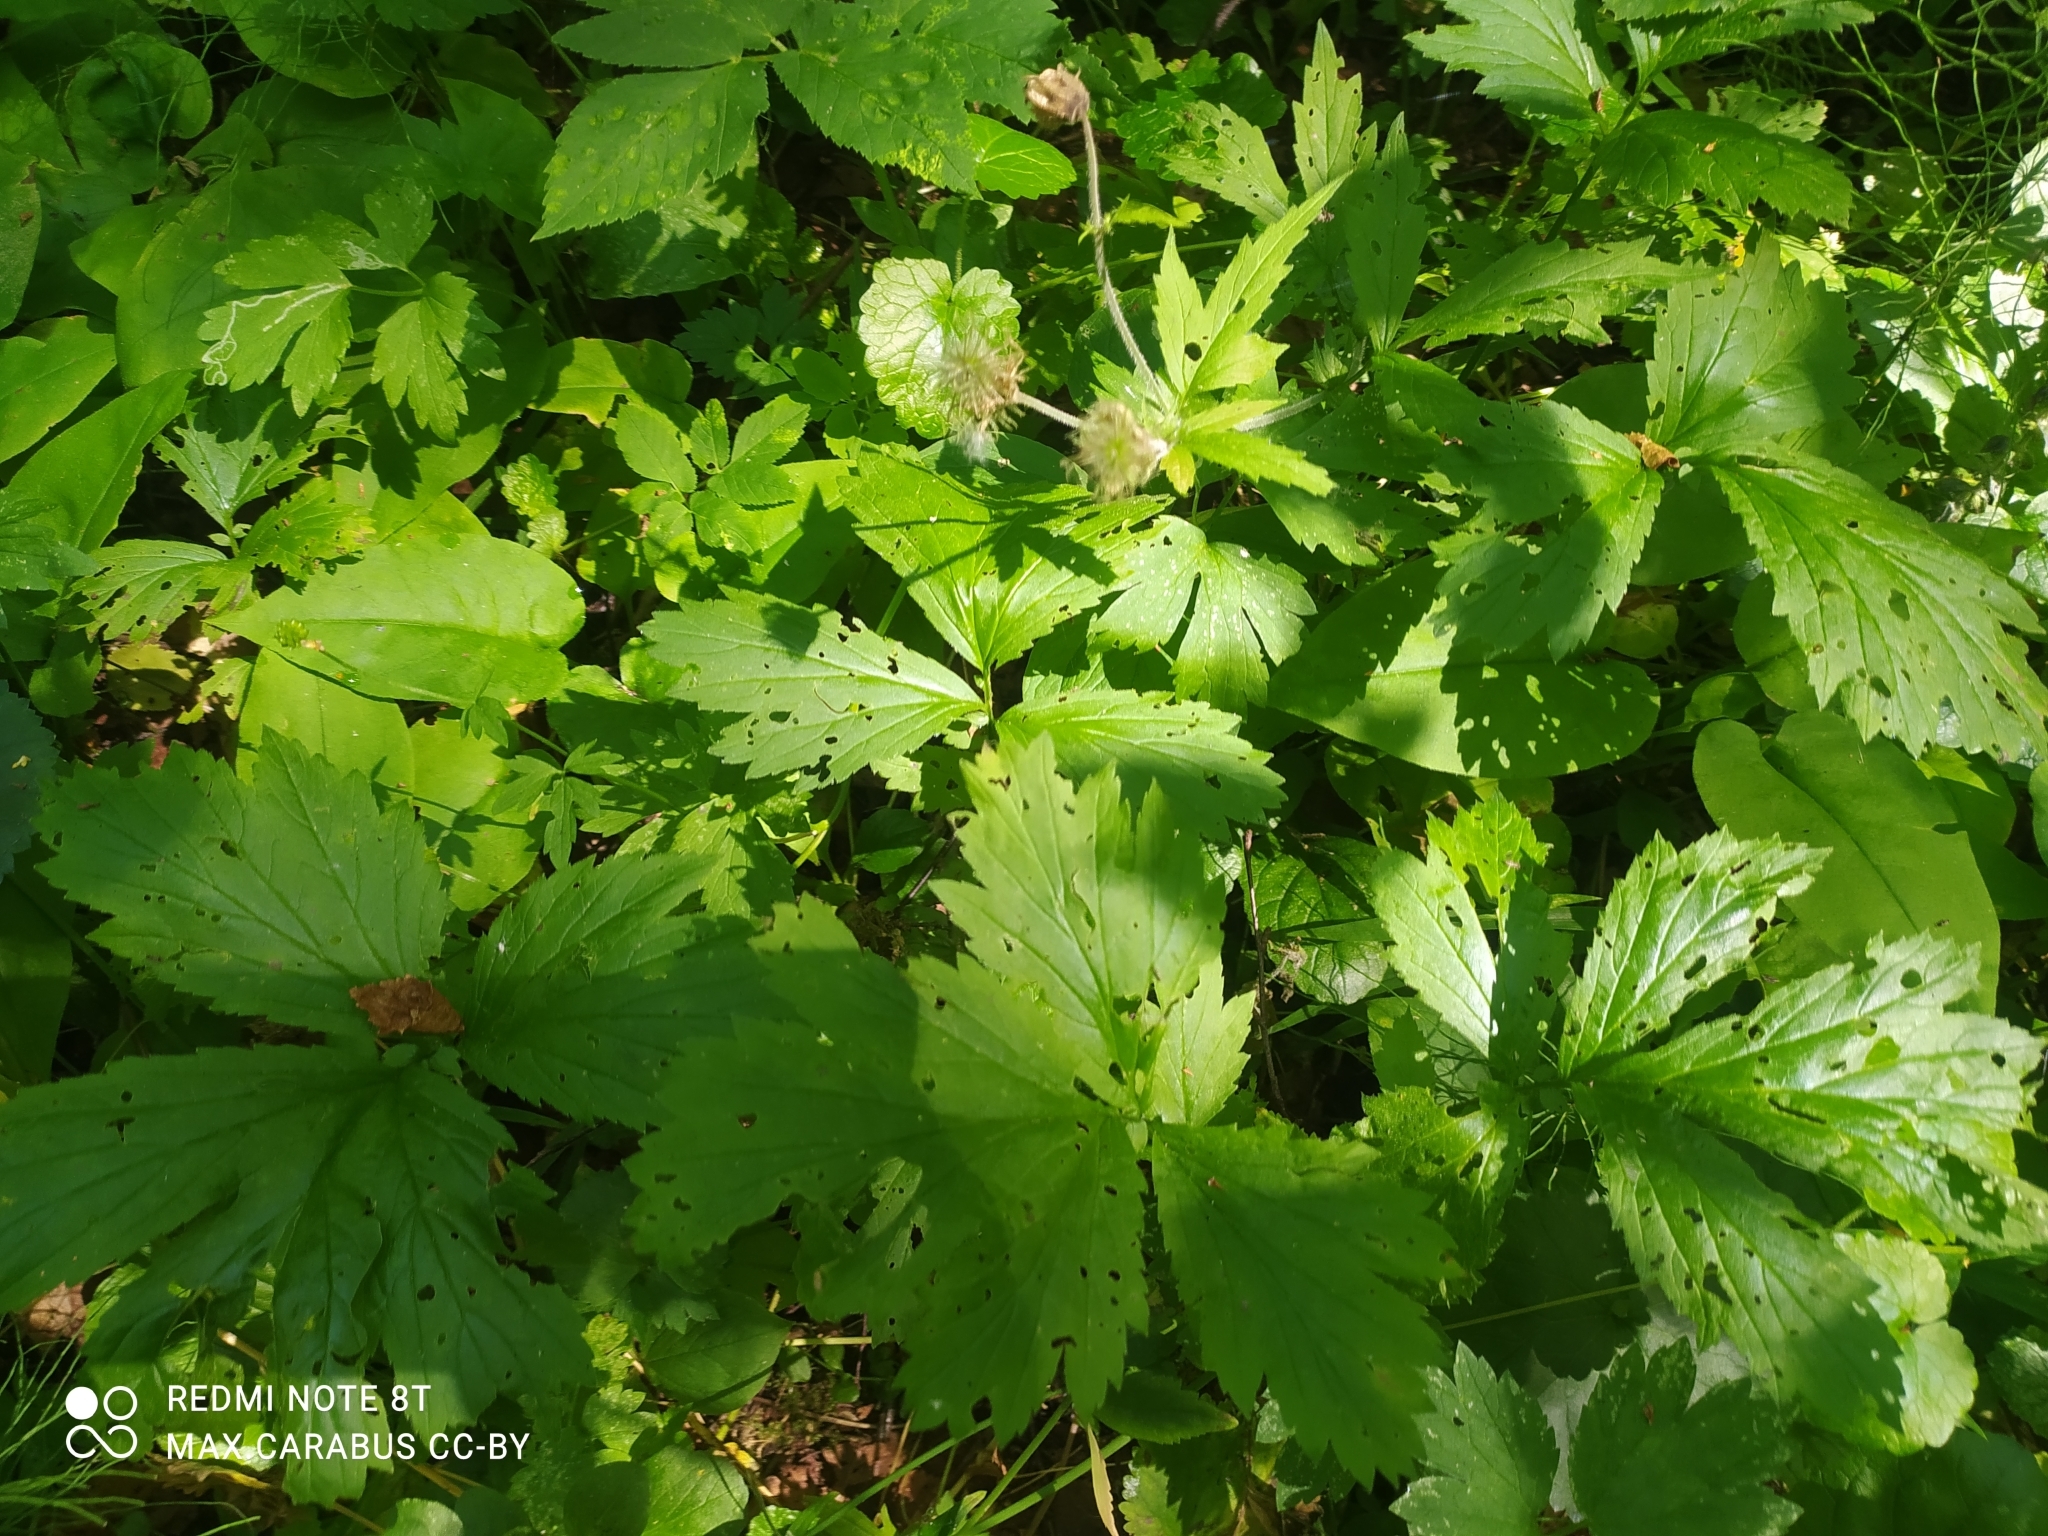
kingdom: Plantae
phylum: Tracheophyta
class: Magnoliopsida
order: Rosales
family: Rosaceae
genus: Geum
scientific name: Geum rivale
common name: Water avens
